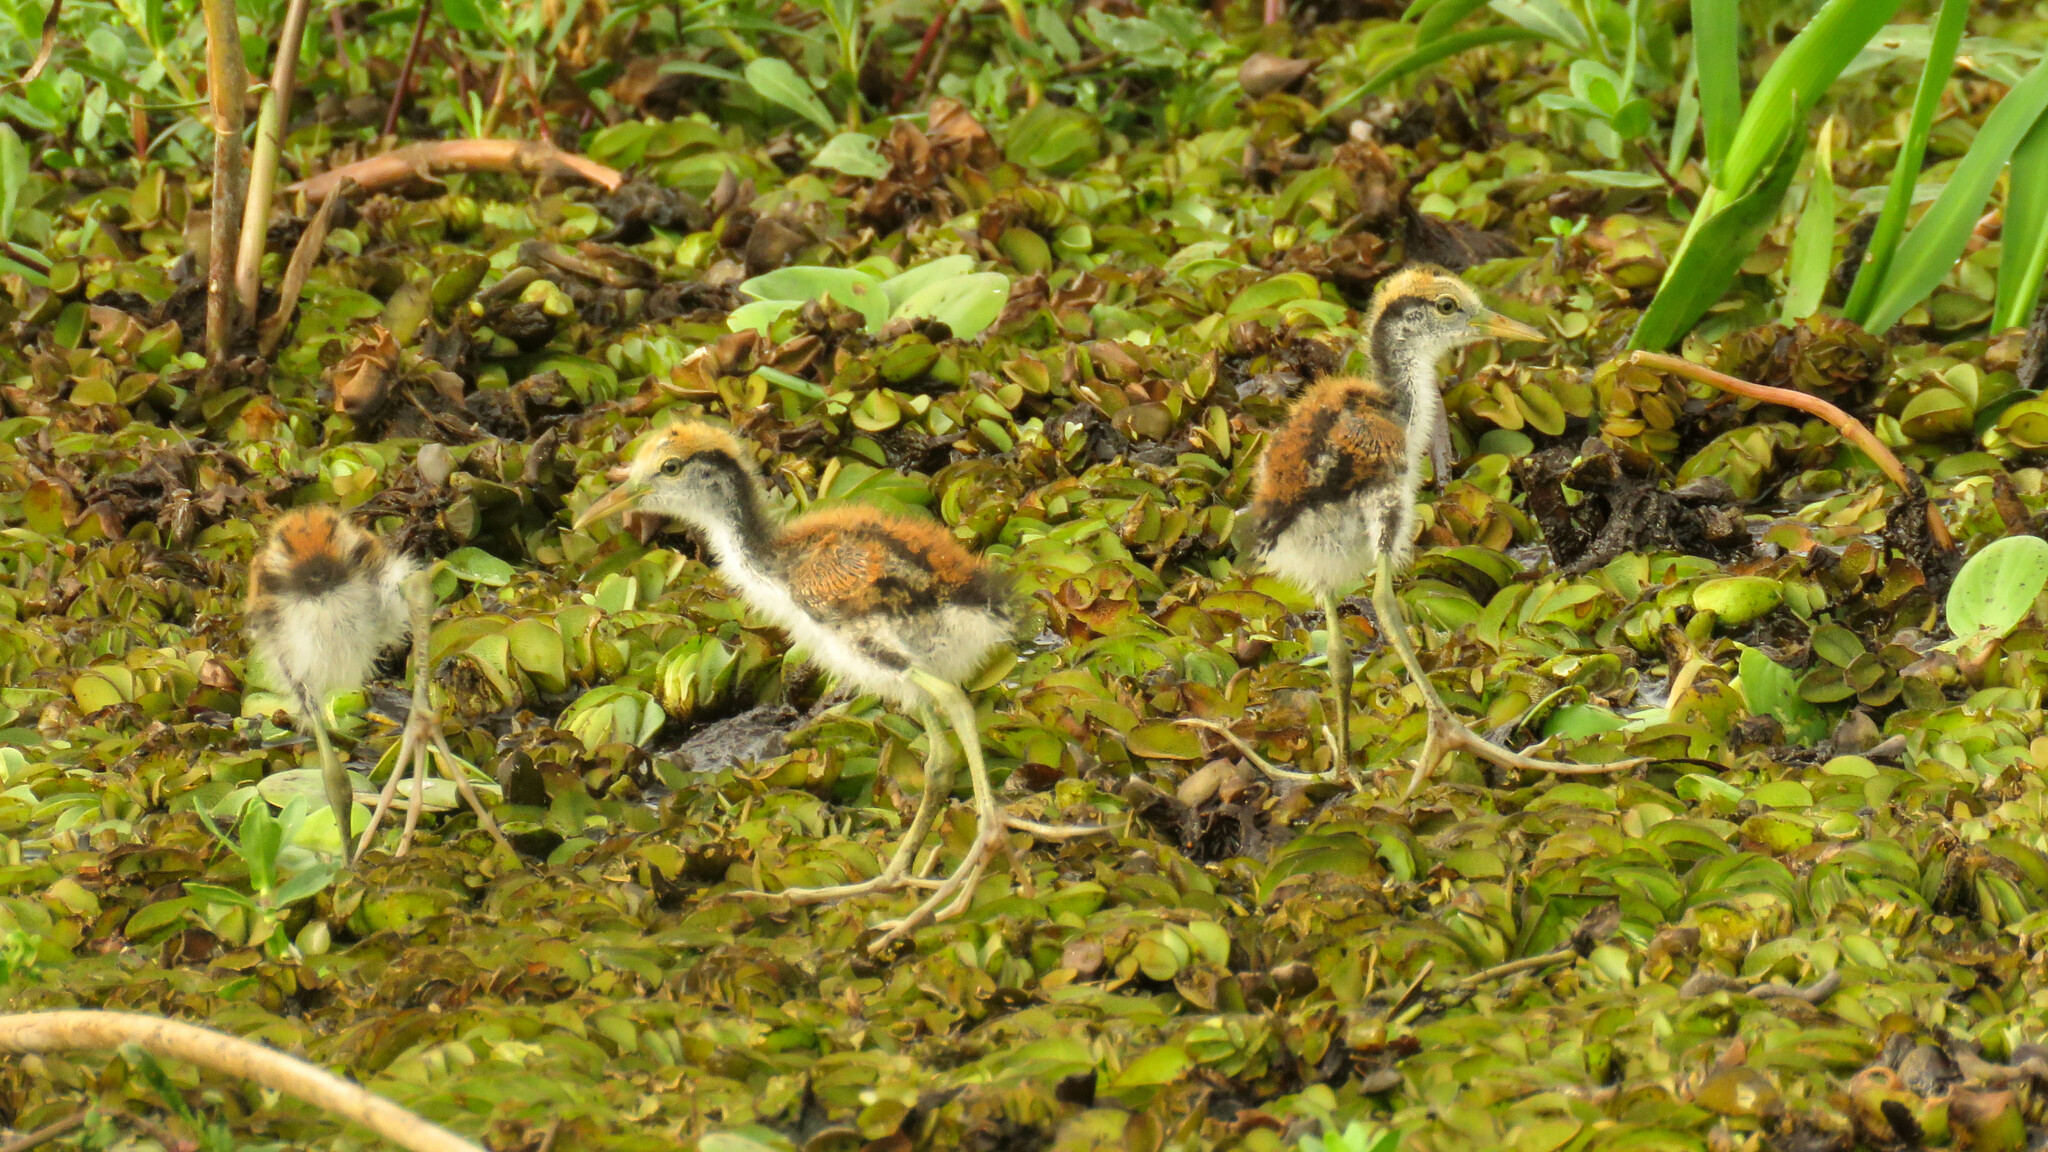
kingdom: Animalia
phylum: Chordata
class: Aves
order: Charadriiformes
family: Jacanidae
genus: Jacana
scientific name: Jacana jacana
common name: Wattled jacana
